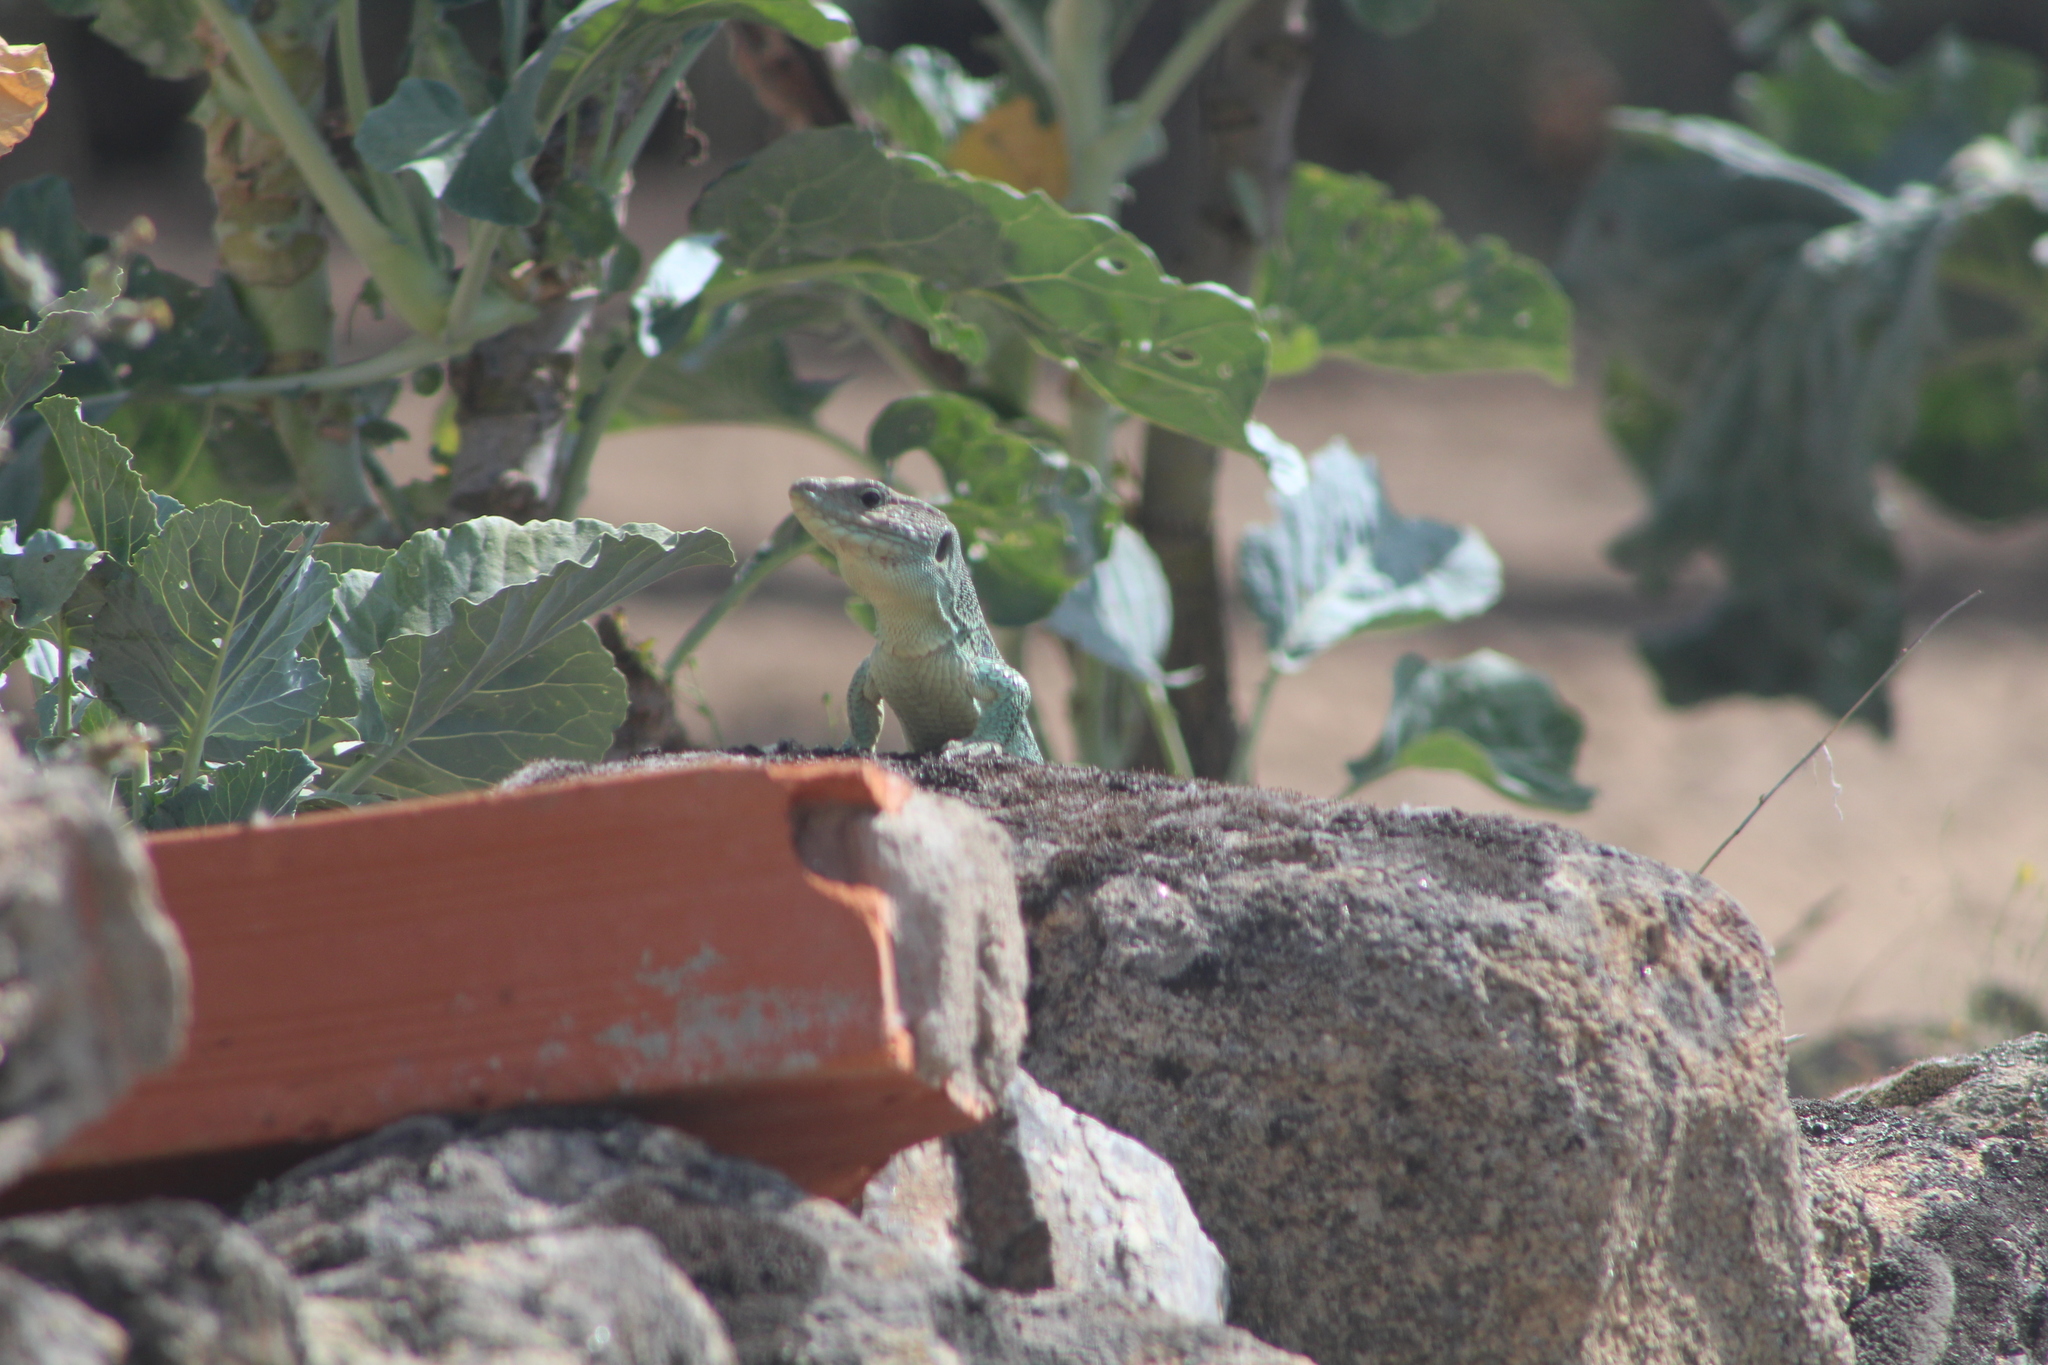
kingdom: Animalia
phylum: Chordata
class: Squamata
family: Lacertidae
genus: Timon
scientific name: Timon lepidus
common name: Ocellated lizard
